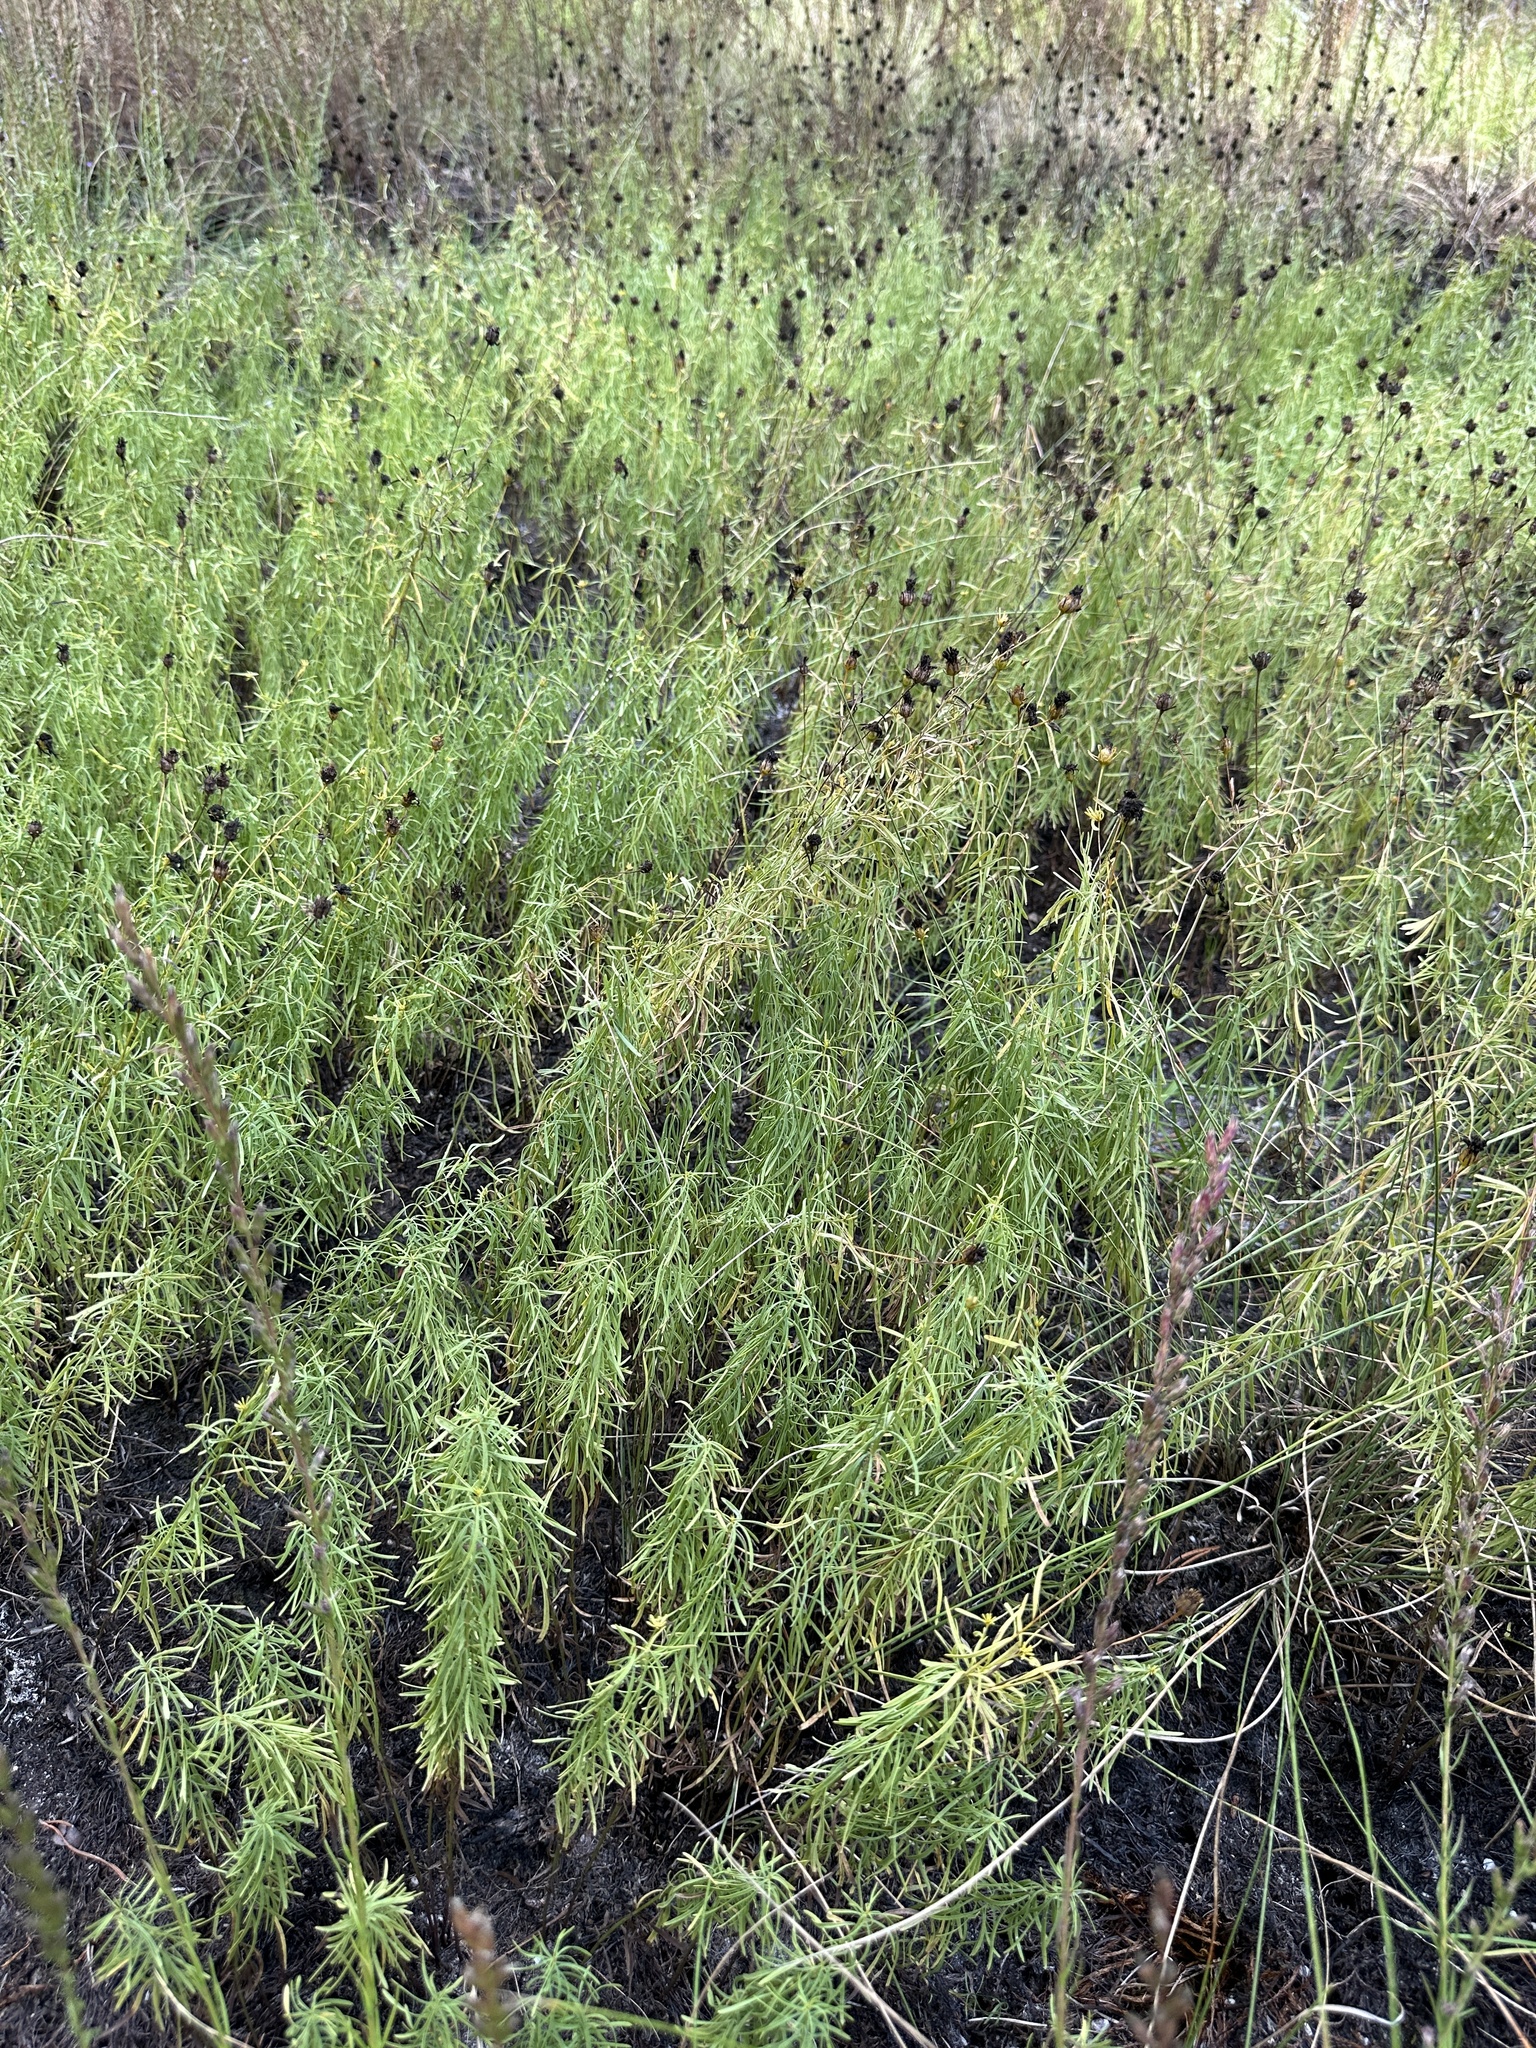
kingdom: Plantae
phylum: Tracheophyta
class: Magnoliopsida
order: Asterales
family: Asteraceae
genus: Coreopsis
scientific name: Coreopsis pulchra
